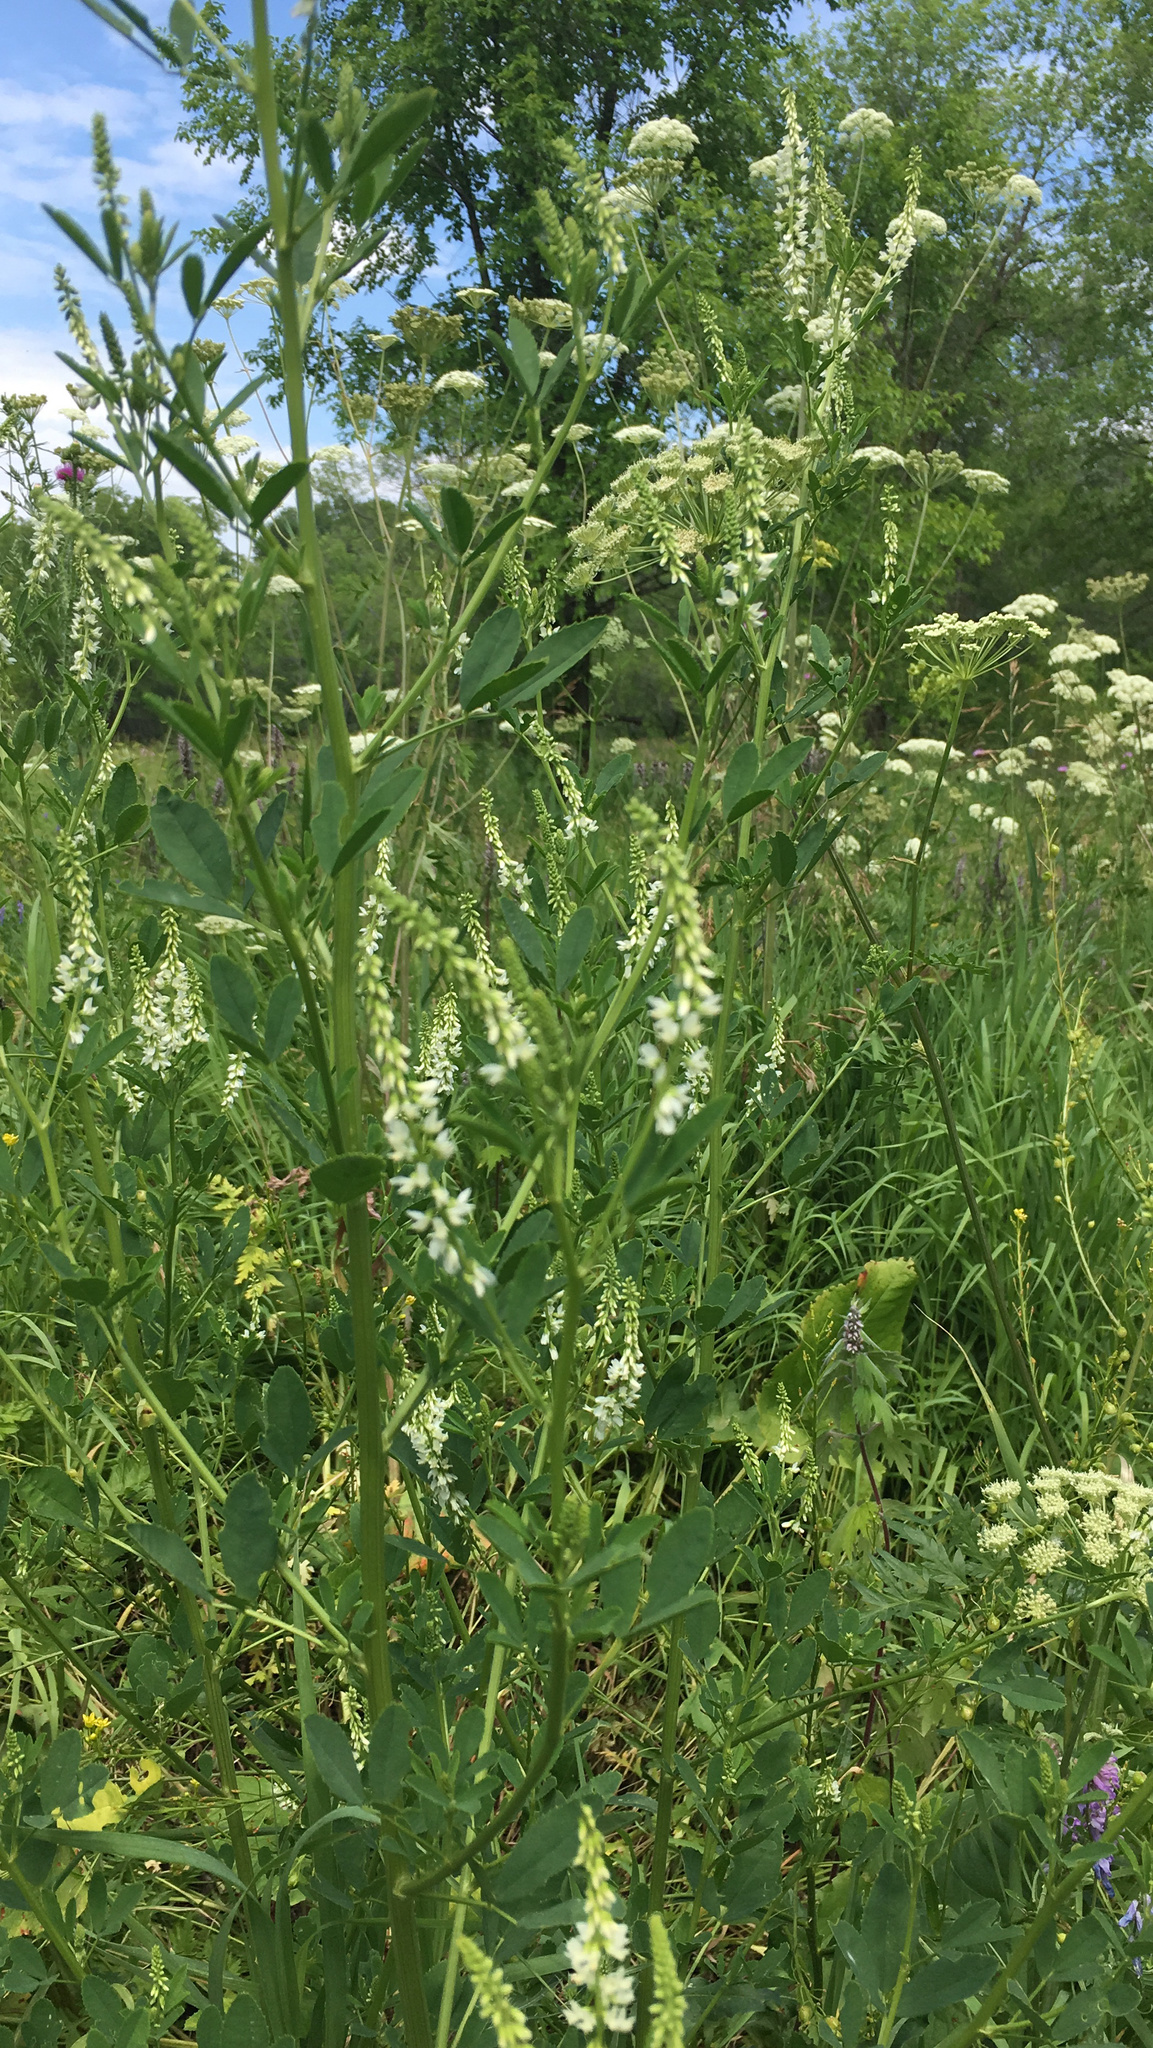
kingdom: Plantae
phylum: Tracheophyta
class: Magnoliopsida
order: Fabales
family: Fabaceae
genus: Melilotus
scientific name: Melilotus albus
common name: White melilot
